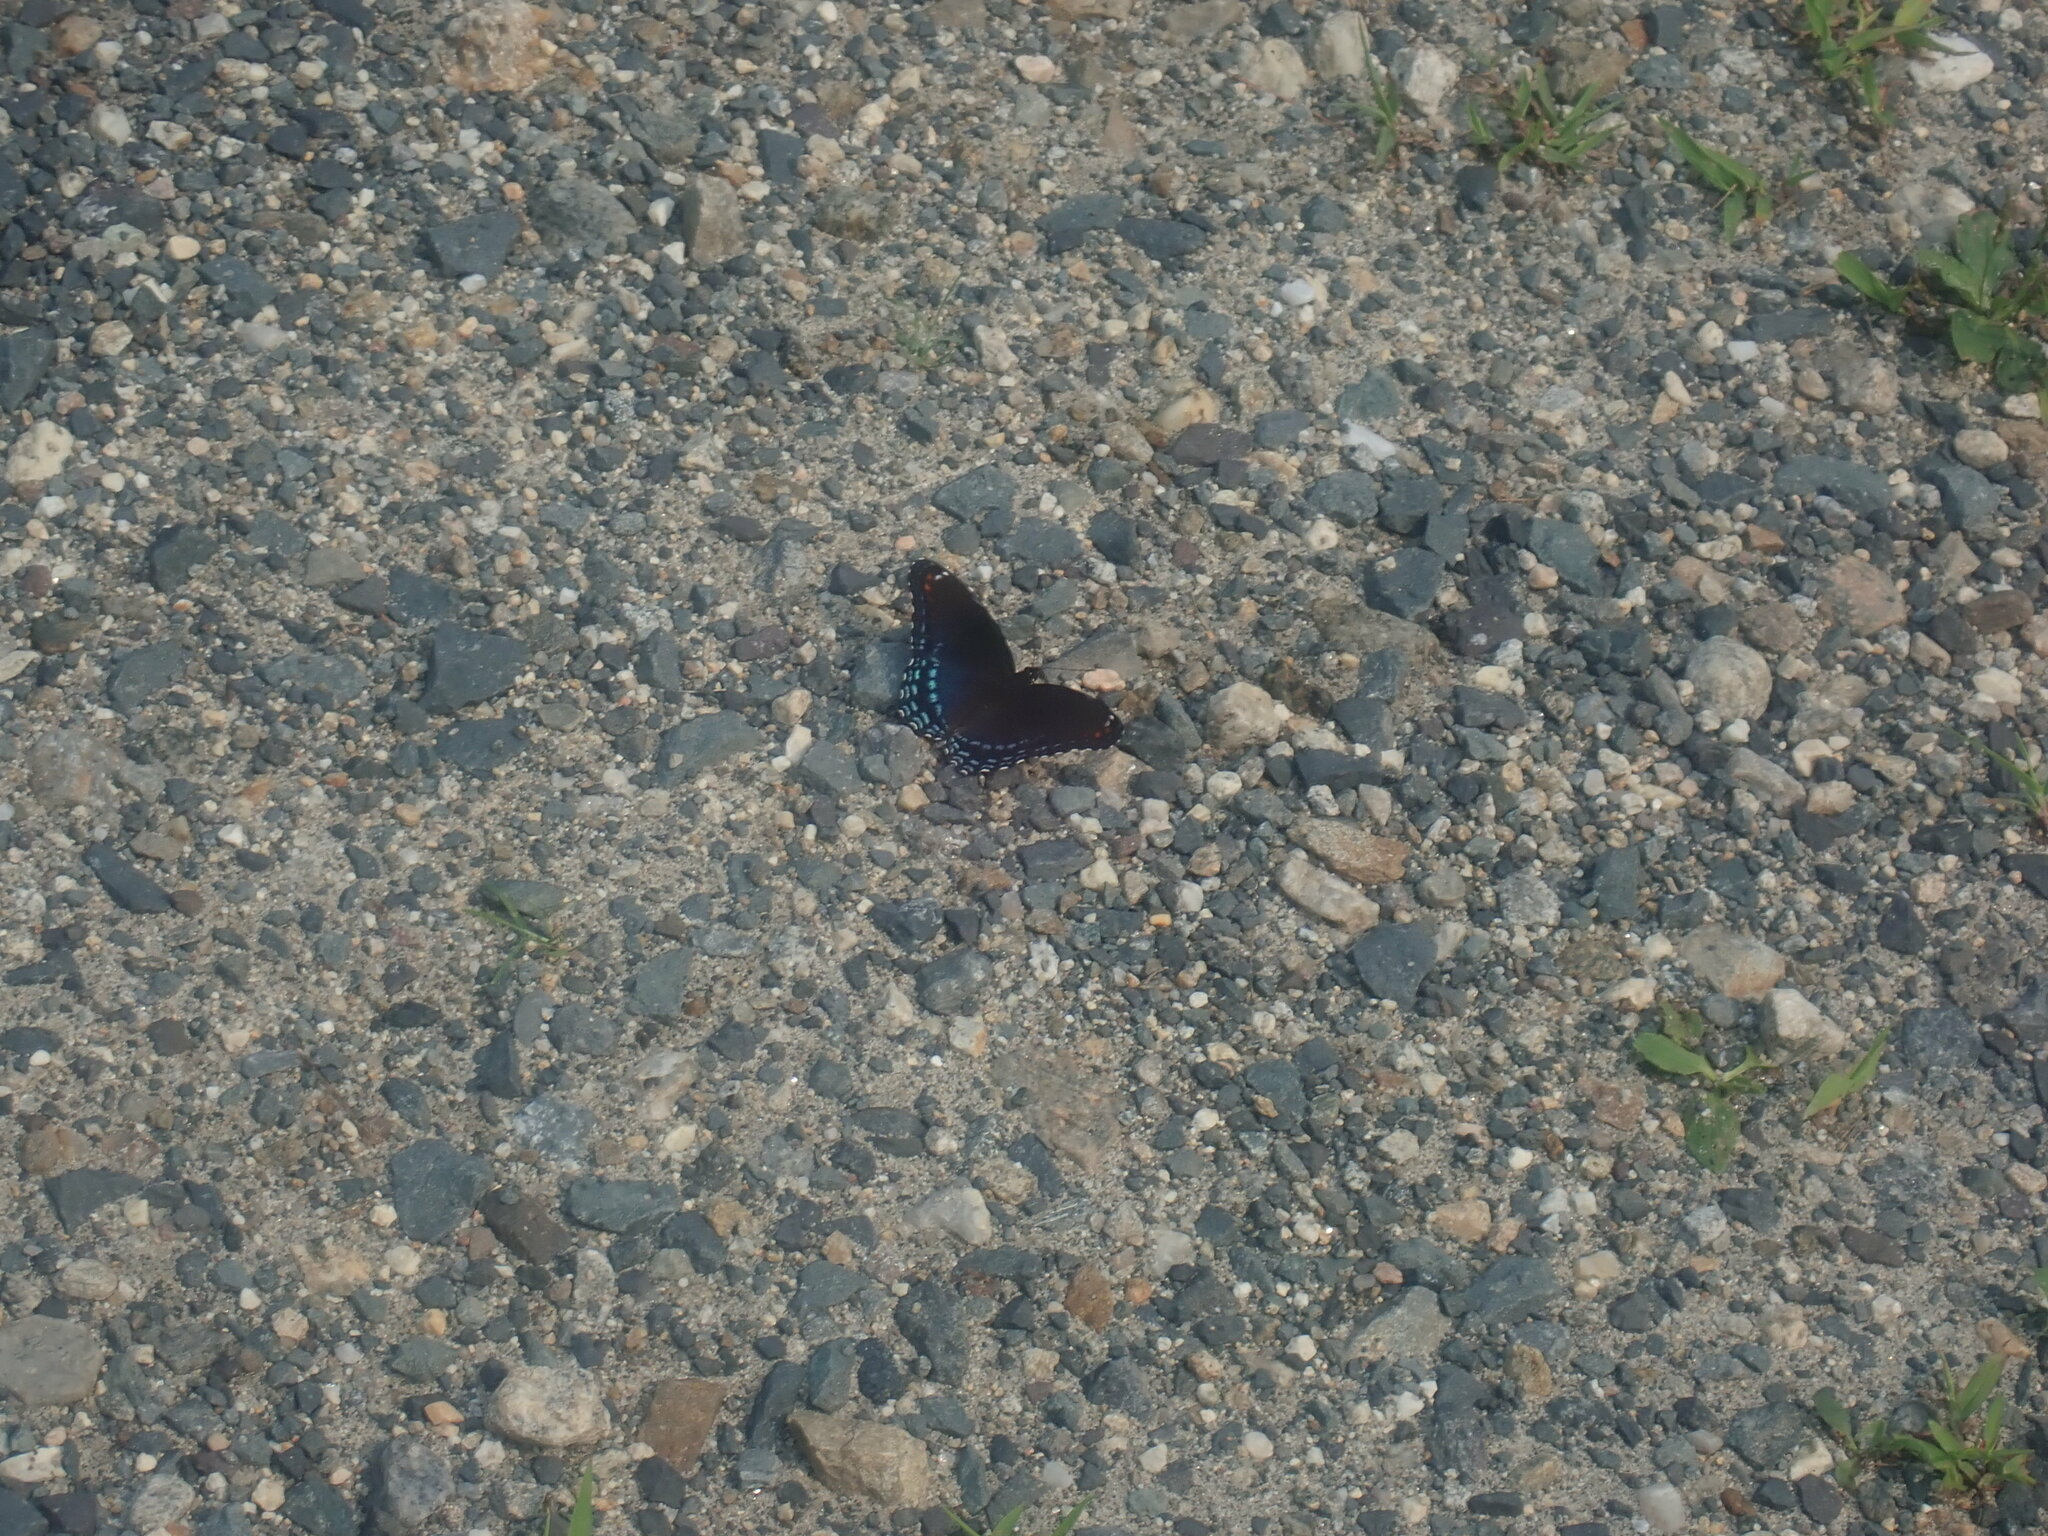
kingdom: Animalia
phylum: Arthropoda
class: Insecta
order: Lepidoptera
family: Nymphalidae
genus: Limenitis
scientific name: Limenitis arthemis
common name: Red-spotted admiral
